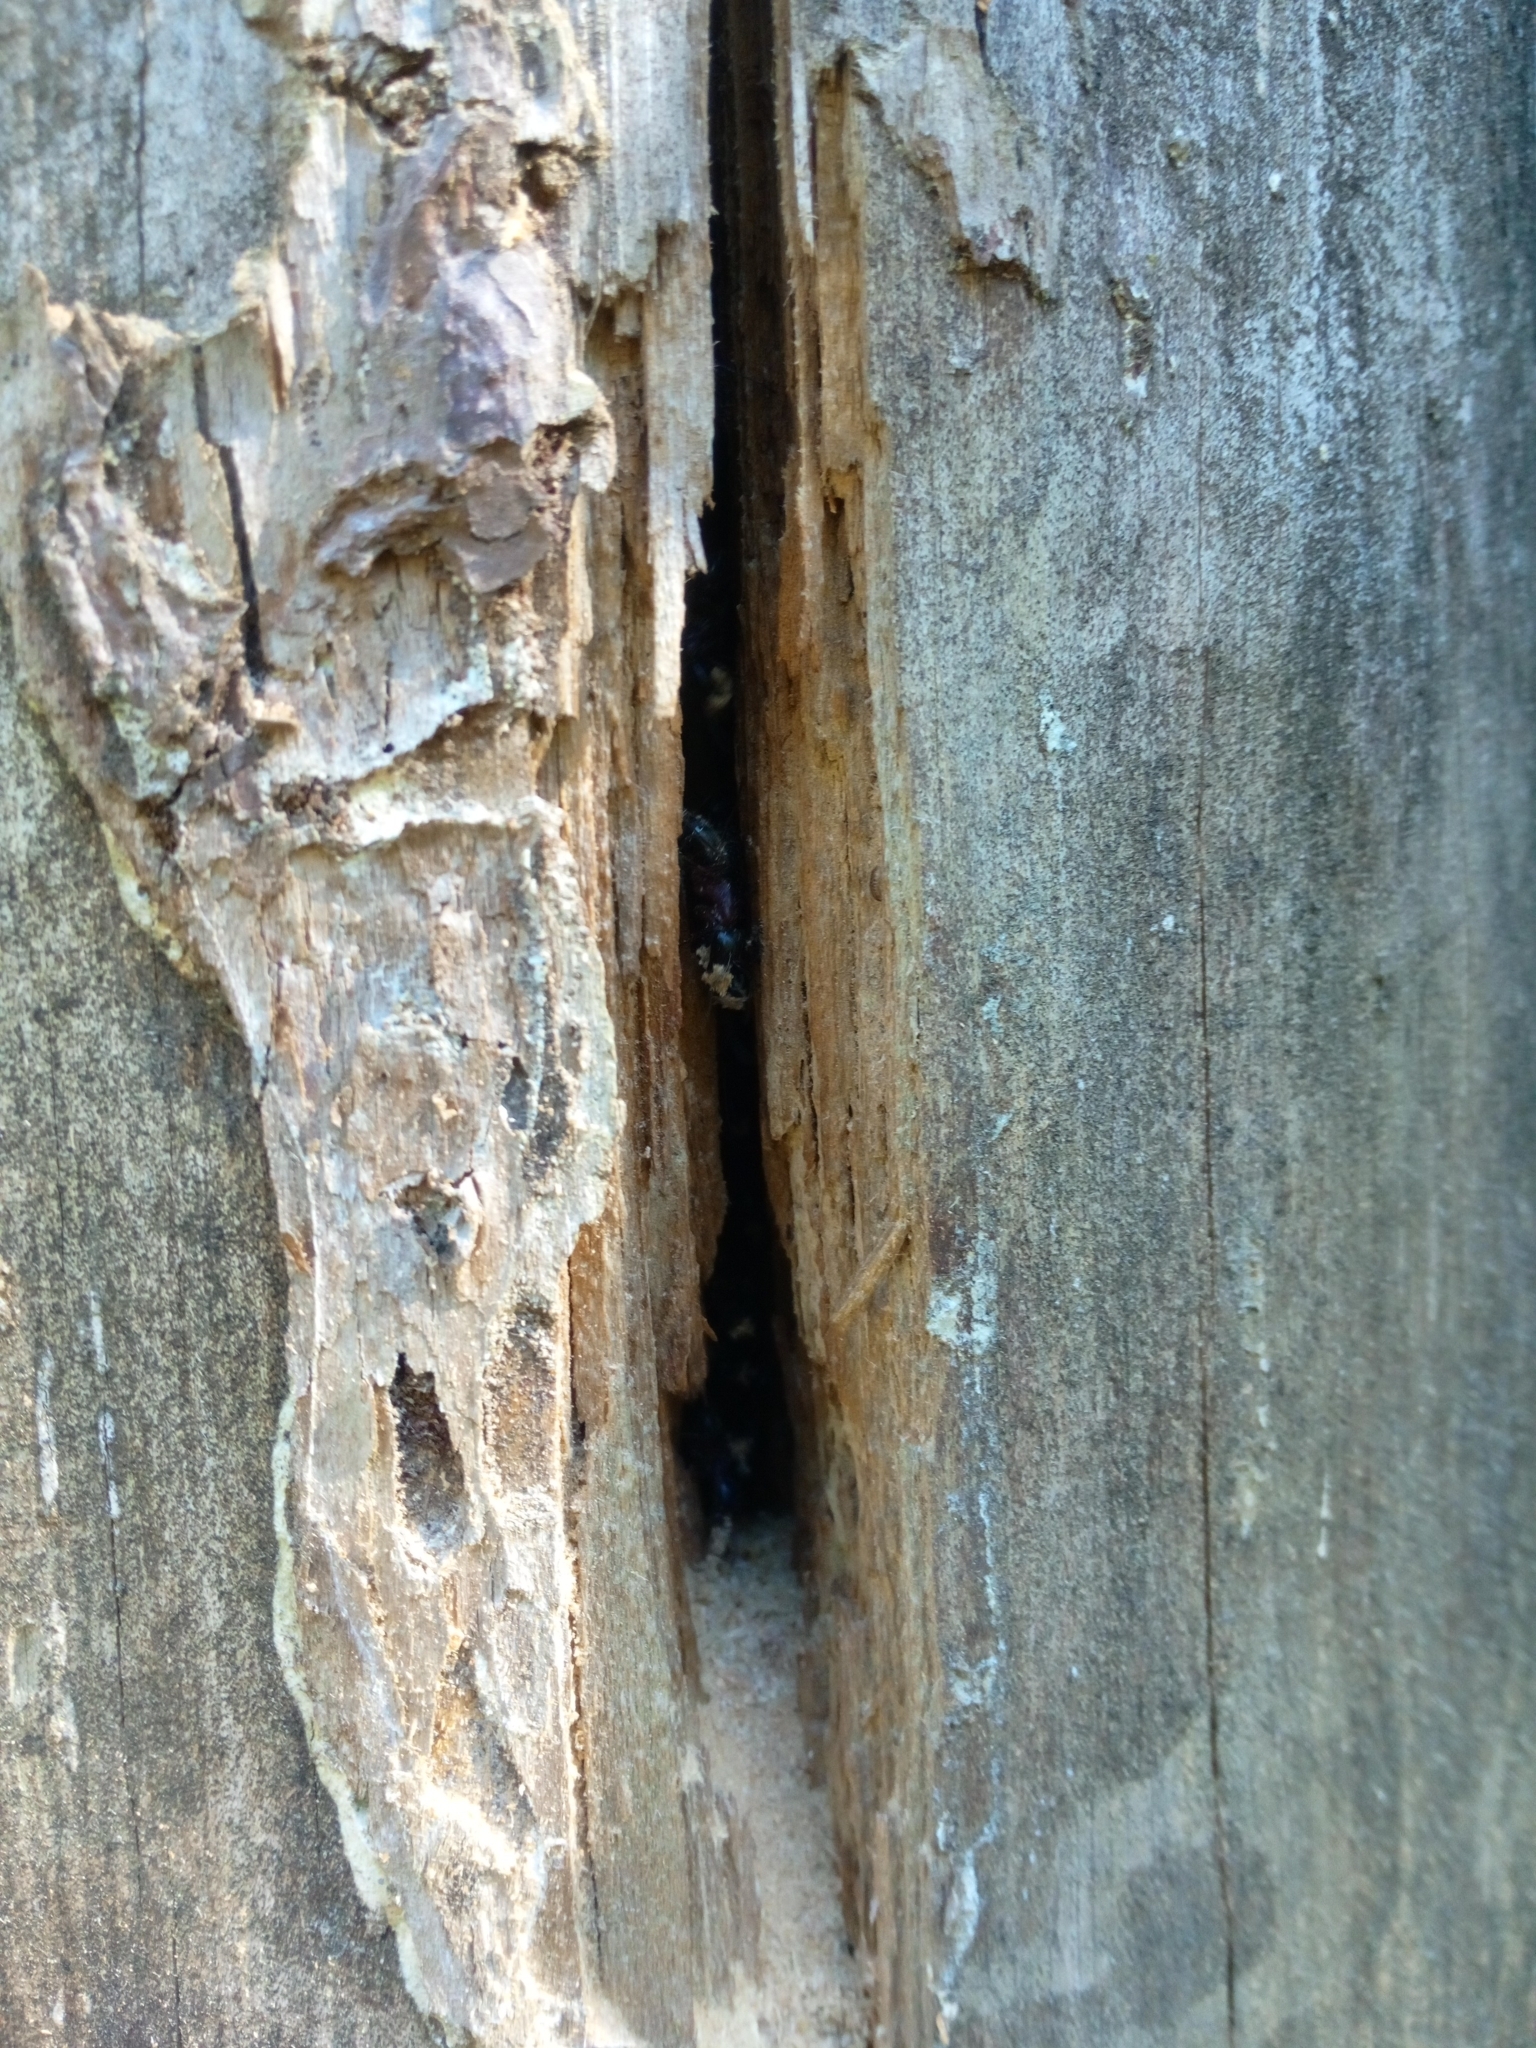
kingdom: Animalia
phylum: Arthropoda
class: Insecta
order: Hymenoptera
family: Formicidae
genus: Camponotus
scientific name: Camponotus herculeanus
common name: Hercules ant
